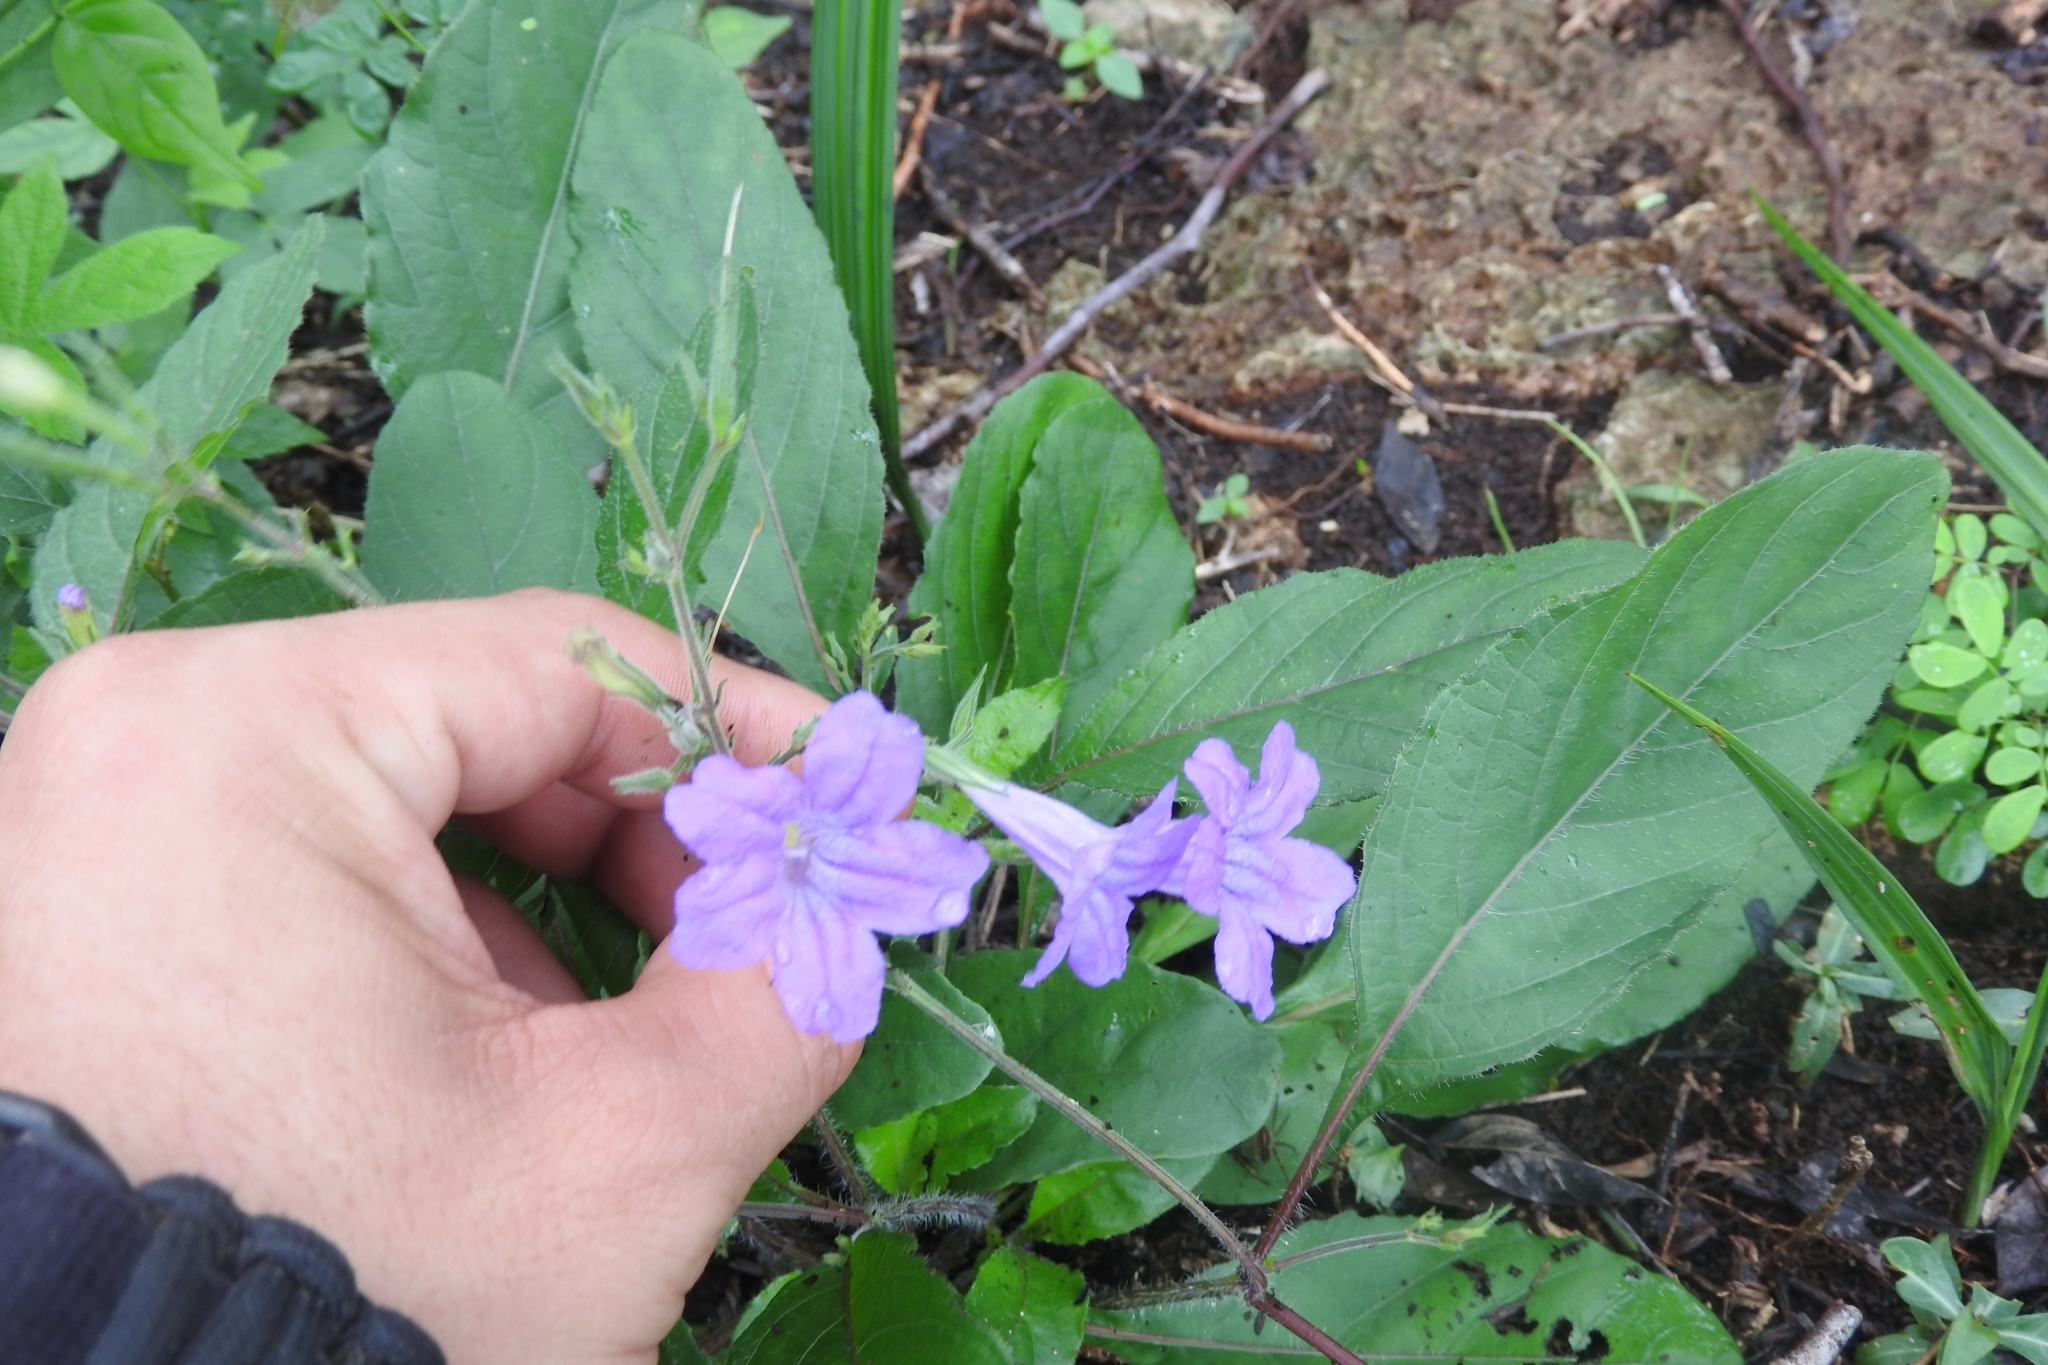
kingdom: Plantae
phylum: Tracheophyta
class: Magnoliopsida
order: Lamiales
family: Acanthaceae
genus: Ruellia
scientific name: Ruellia ciliatiflora
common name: Hairyflower wild petunia
